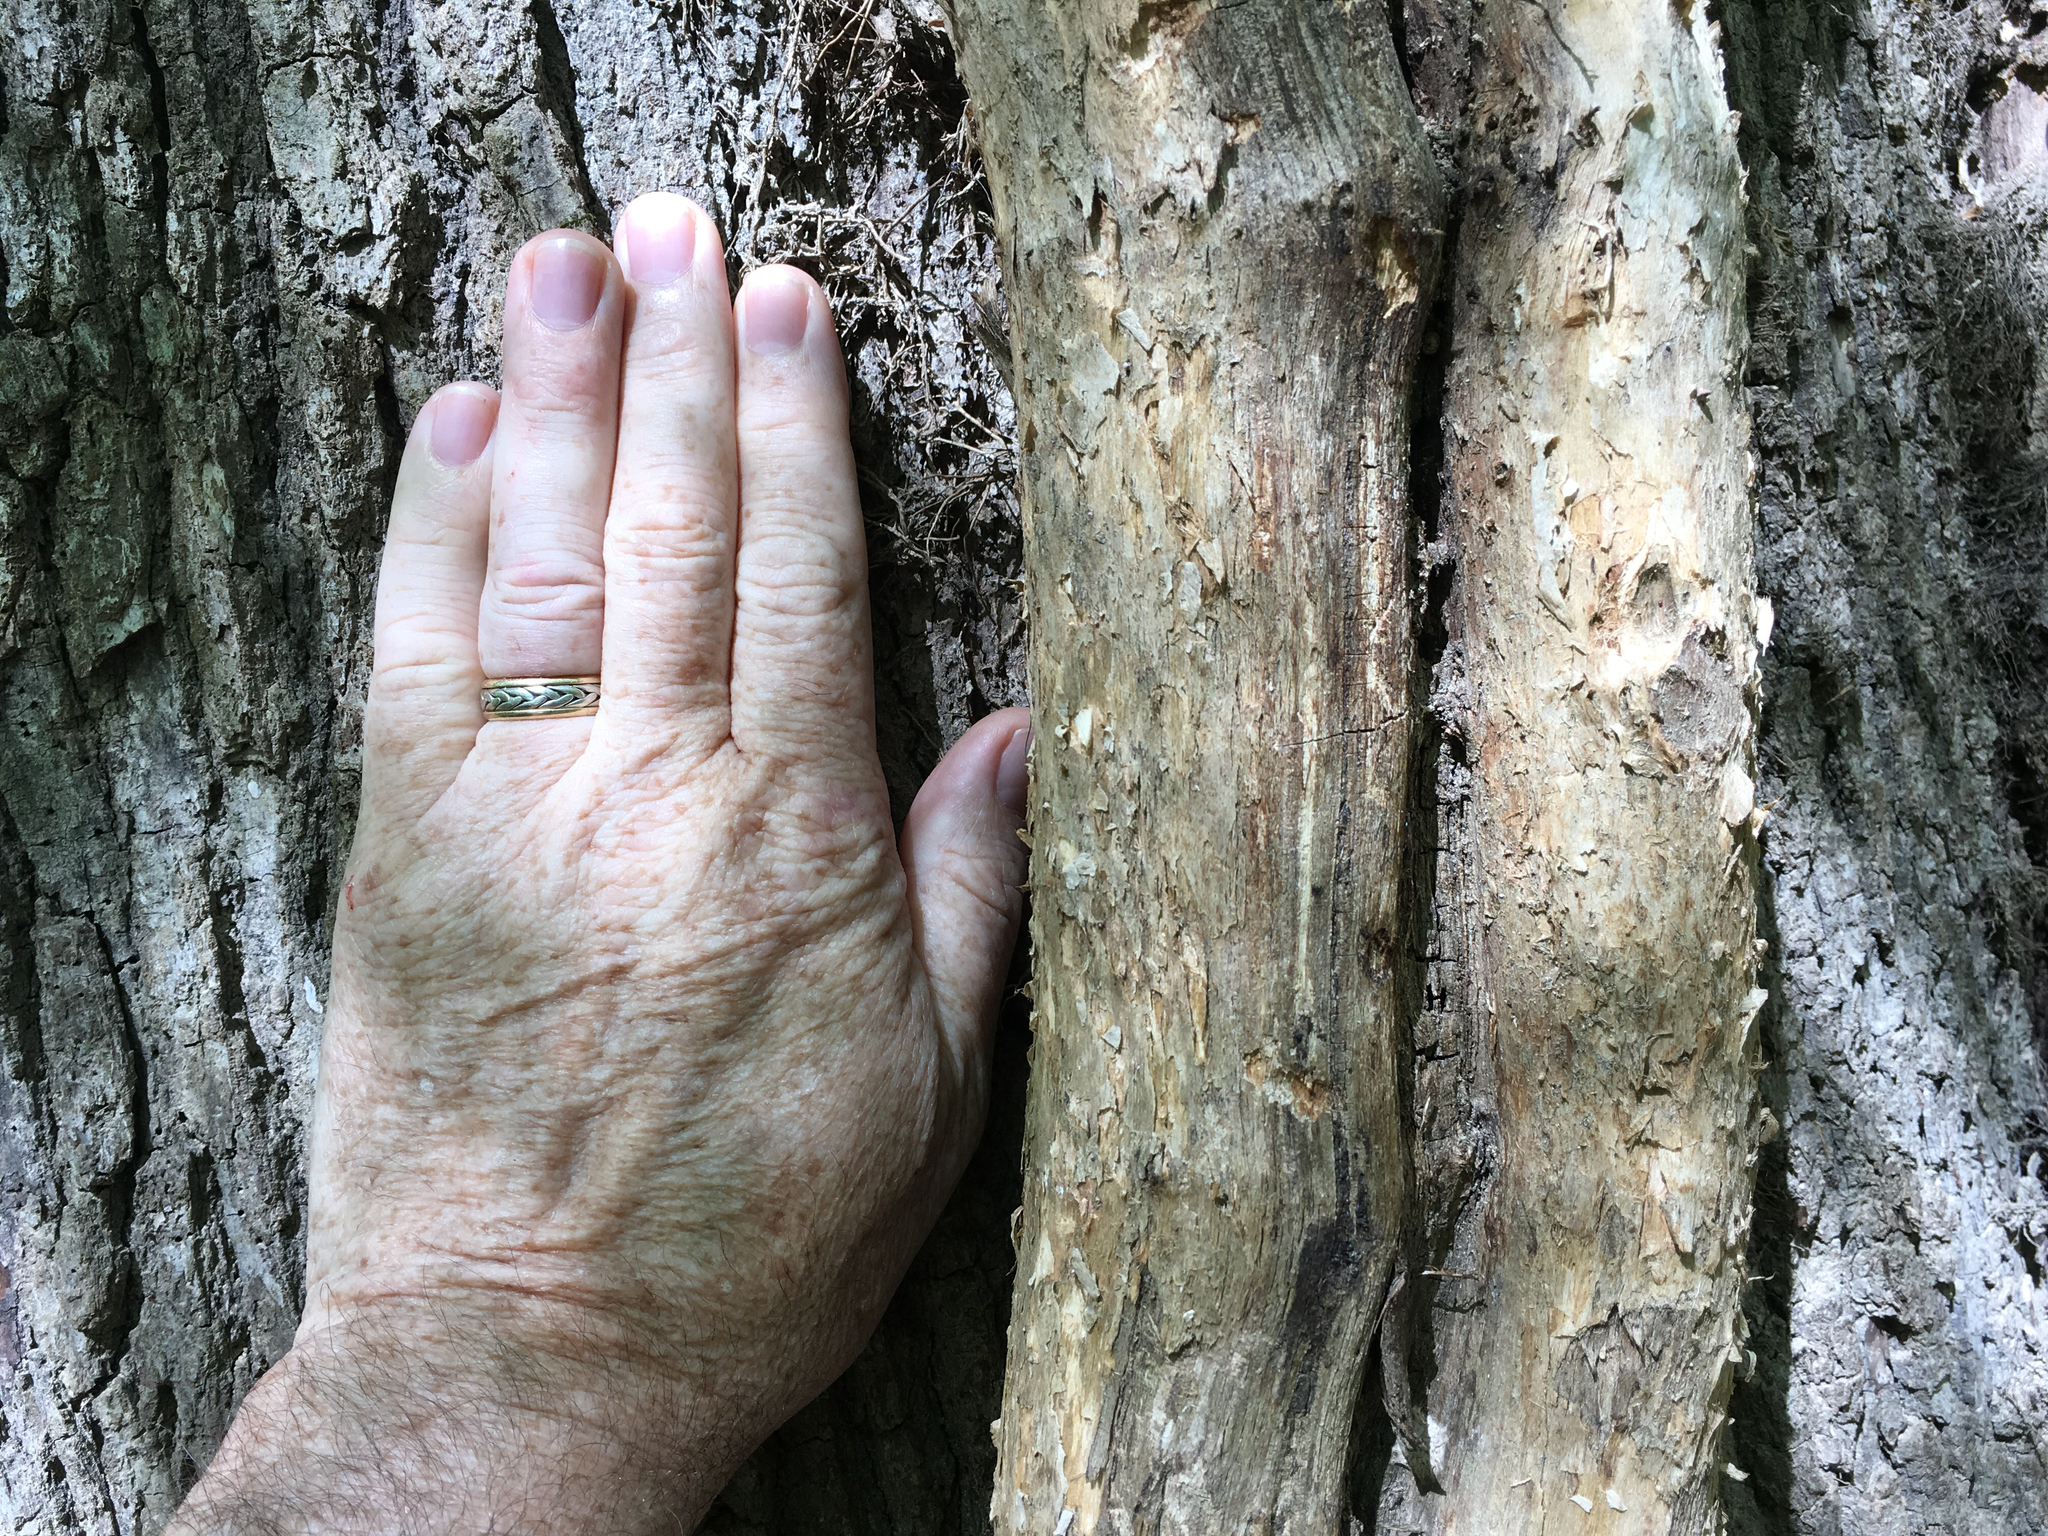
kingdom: Plantae
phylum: Tracheophyta
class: Magnoliopsida
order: Lamiales
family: Bignoniaceae
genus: Campsis
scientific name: Campsis radicans
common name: Trumpet-creeper
